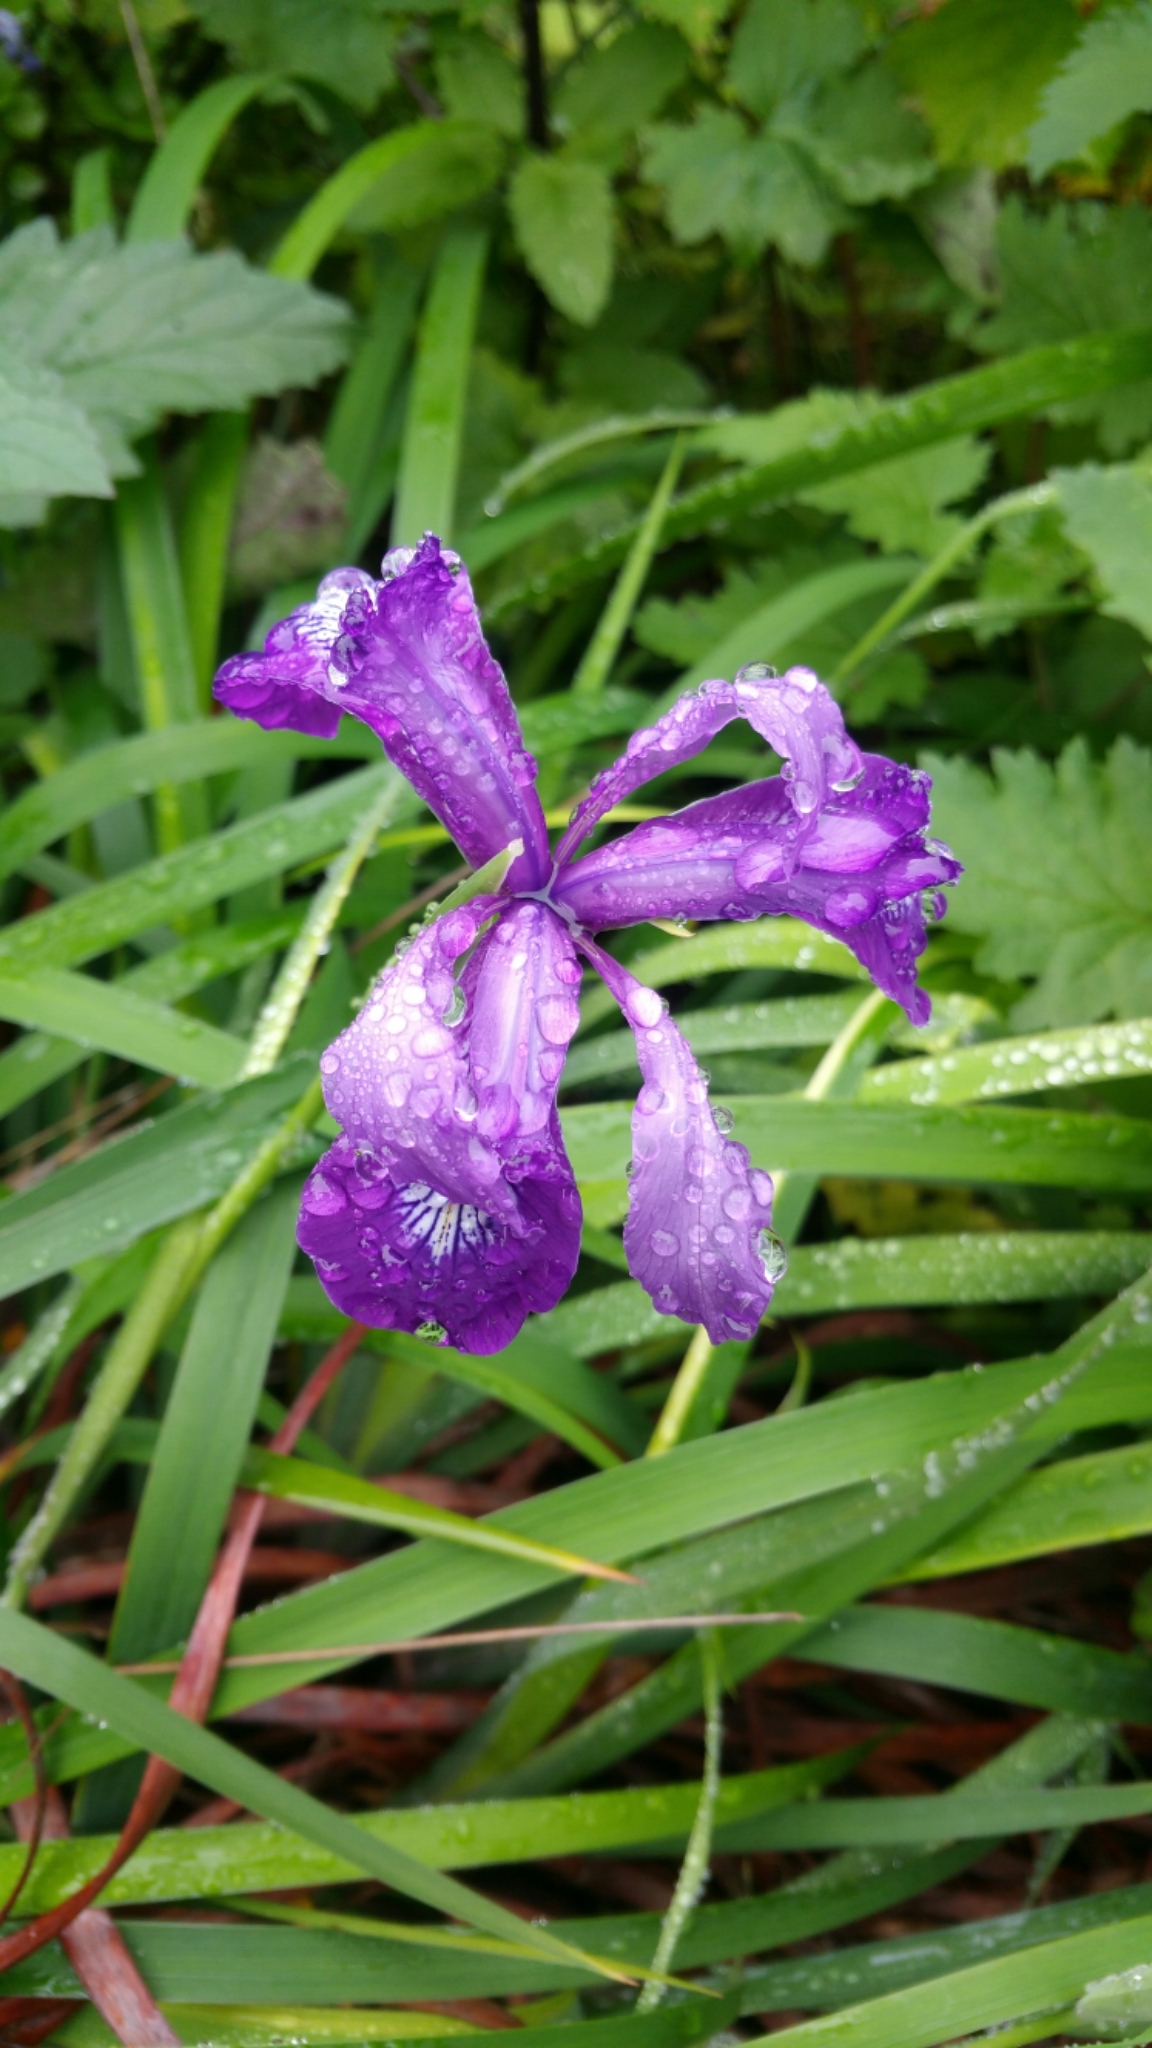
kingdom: Plantae
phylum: Tracheophyta
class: Liliopsida
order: Asparagales
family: Iridaceae
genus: Iris
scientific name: Iris douglasiana
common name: Marin iris
